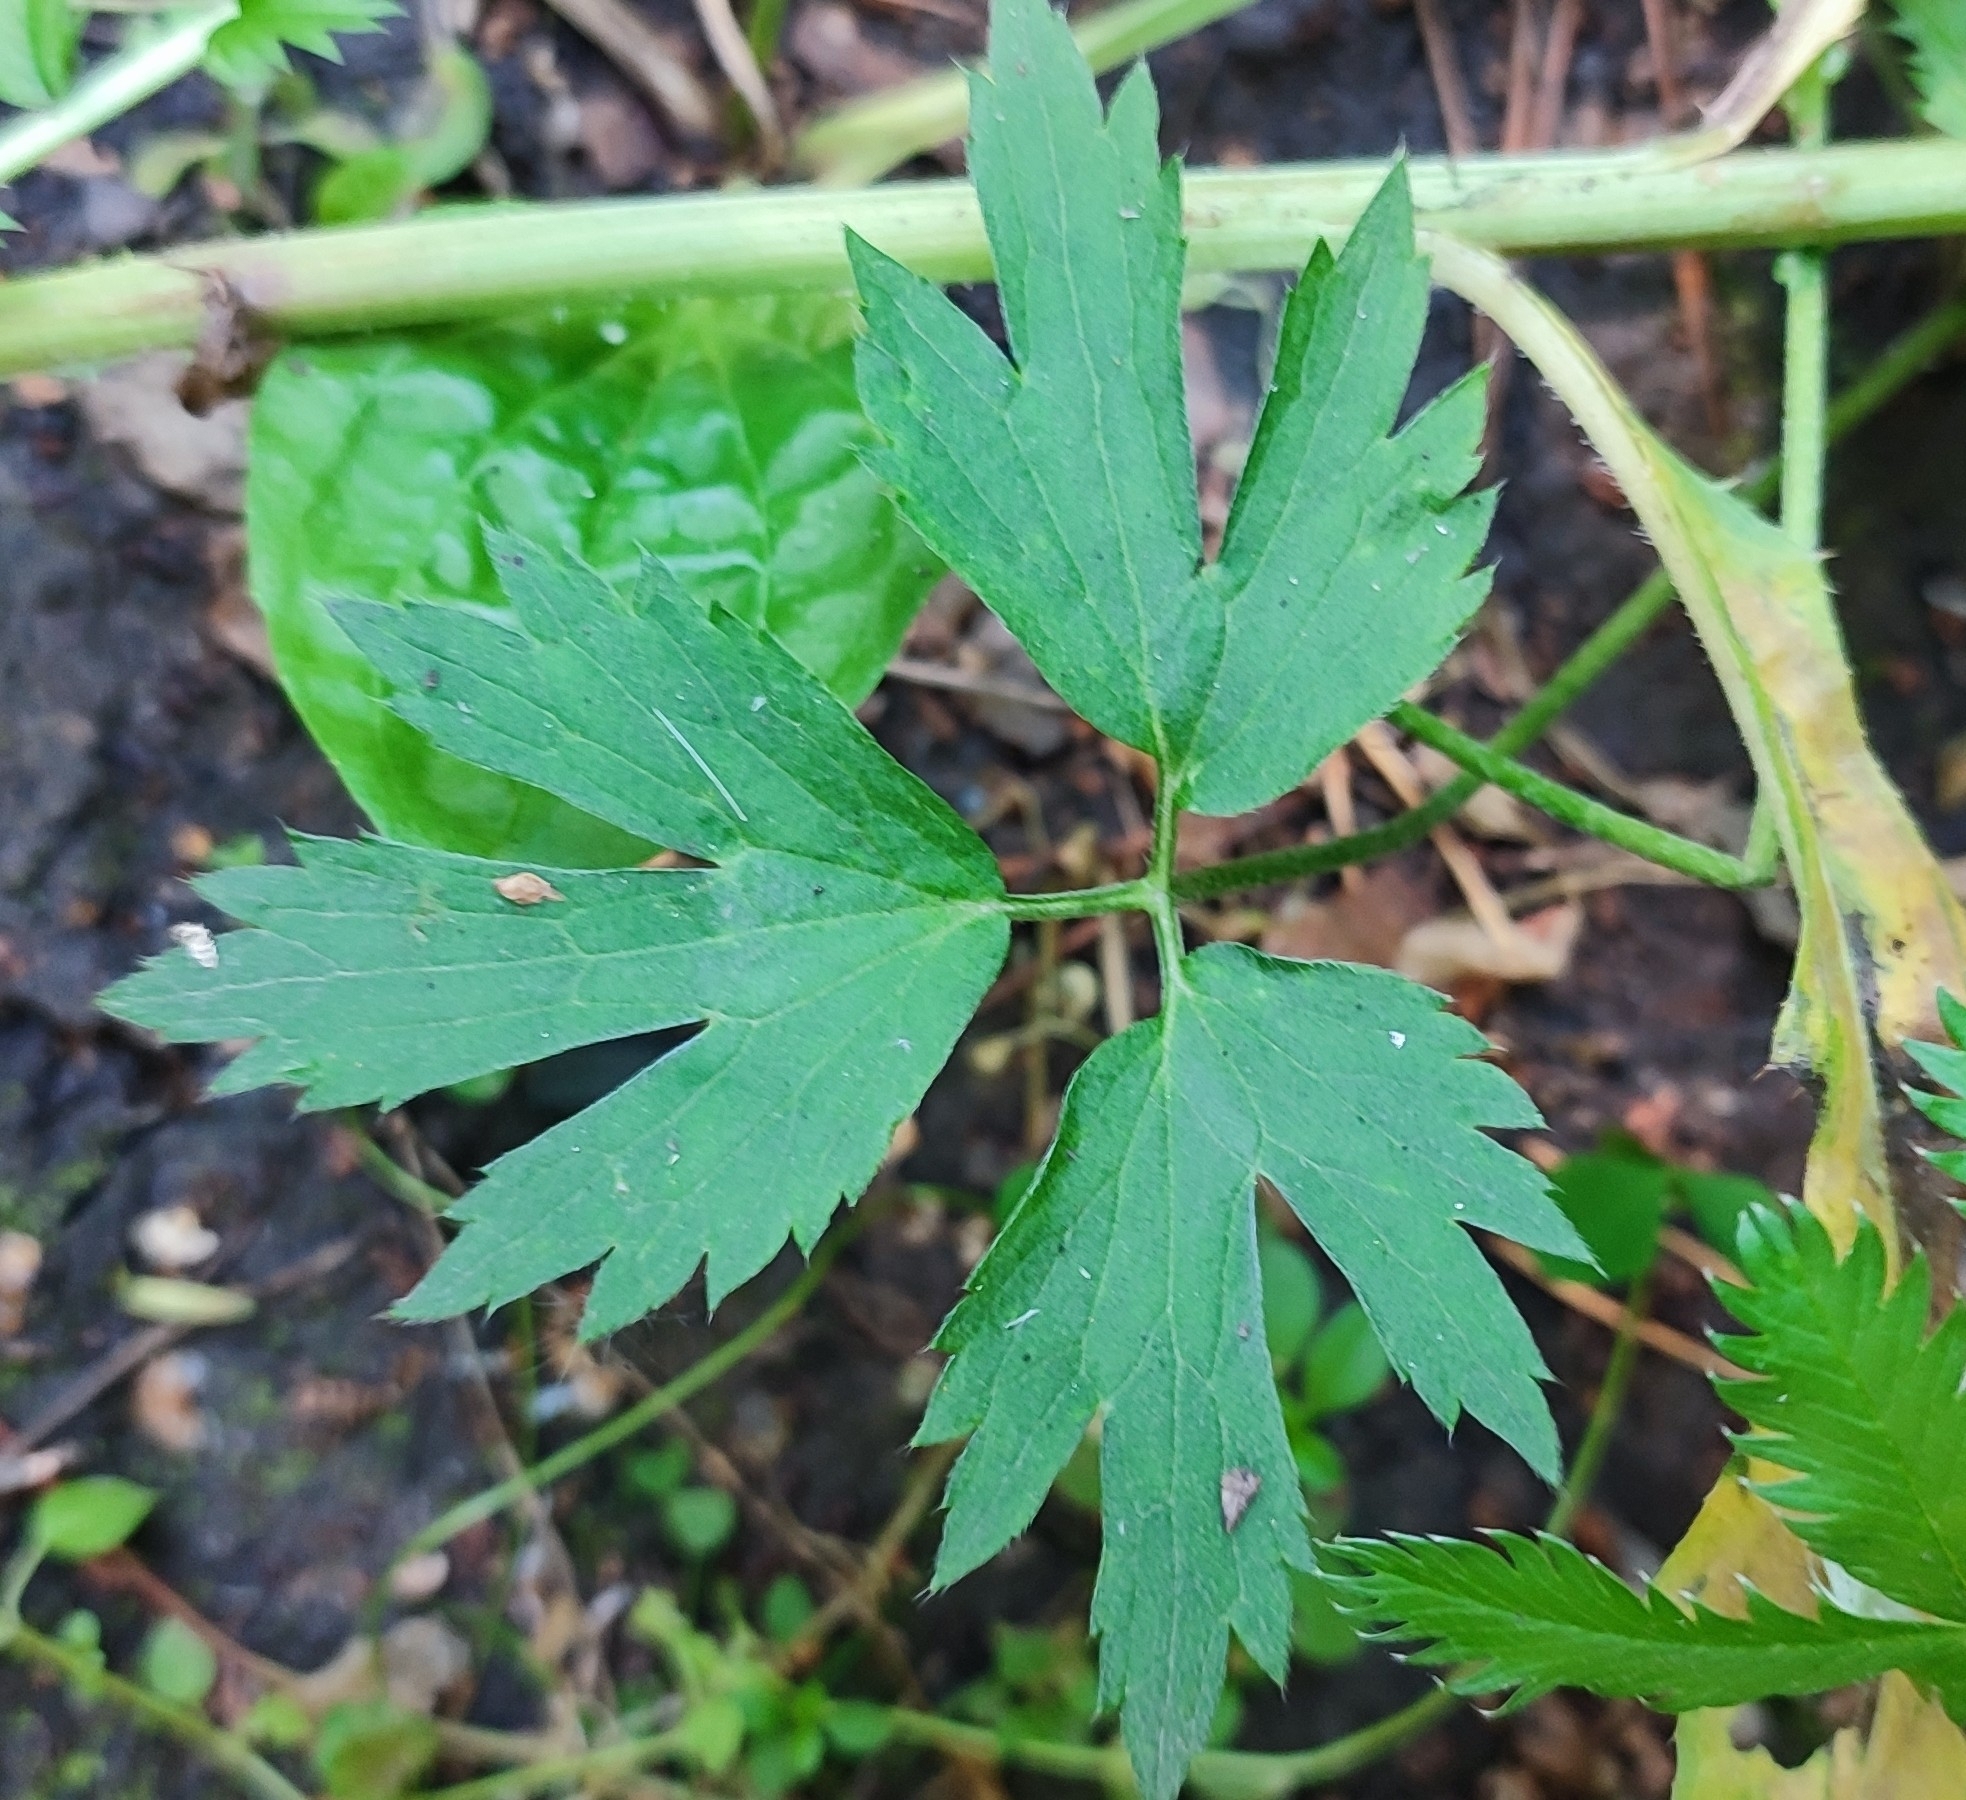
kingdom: Plantae
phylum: Tracheophyta
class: Magnoliopsida
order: Ranunculales
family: Ranunculaceae
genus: Ranunculus
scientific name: Ranunculus repens
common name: Creeping buttercup
